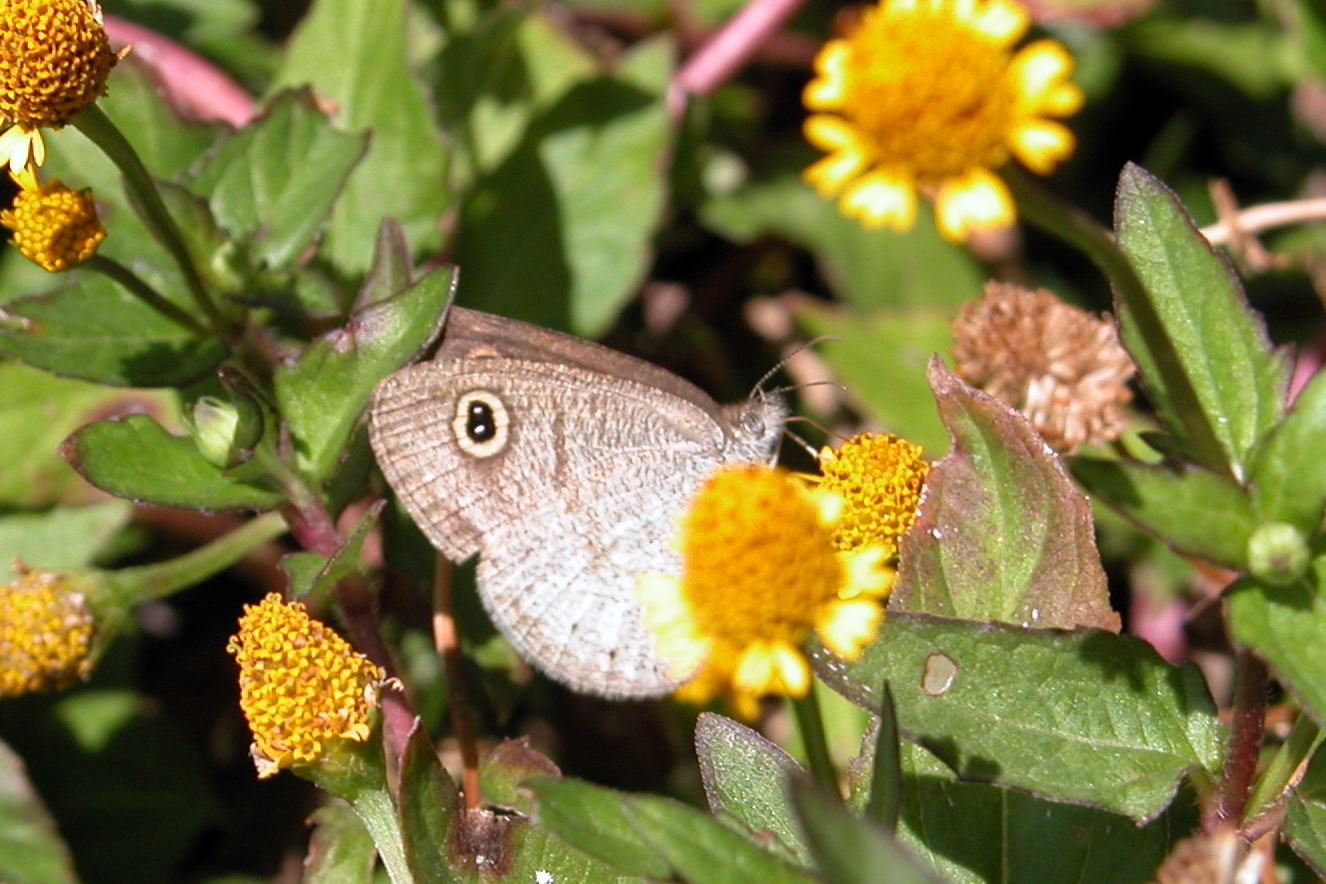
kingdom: Animalia
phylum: Arthropoda
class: Insecta
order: Lepidoptera
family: Nymphalidae
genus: Ypthima
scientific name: Ypthima huebneri
